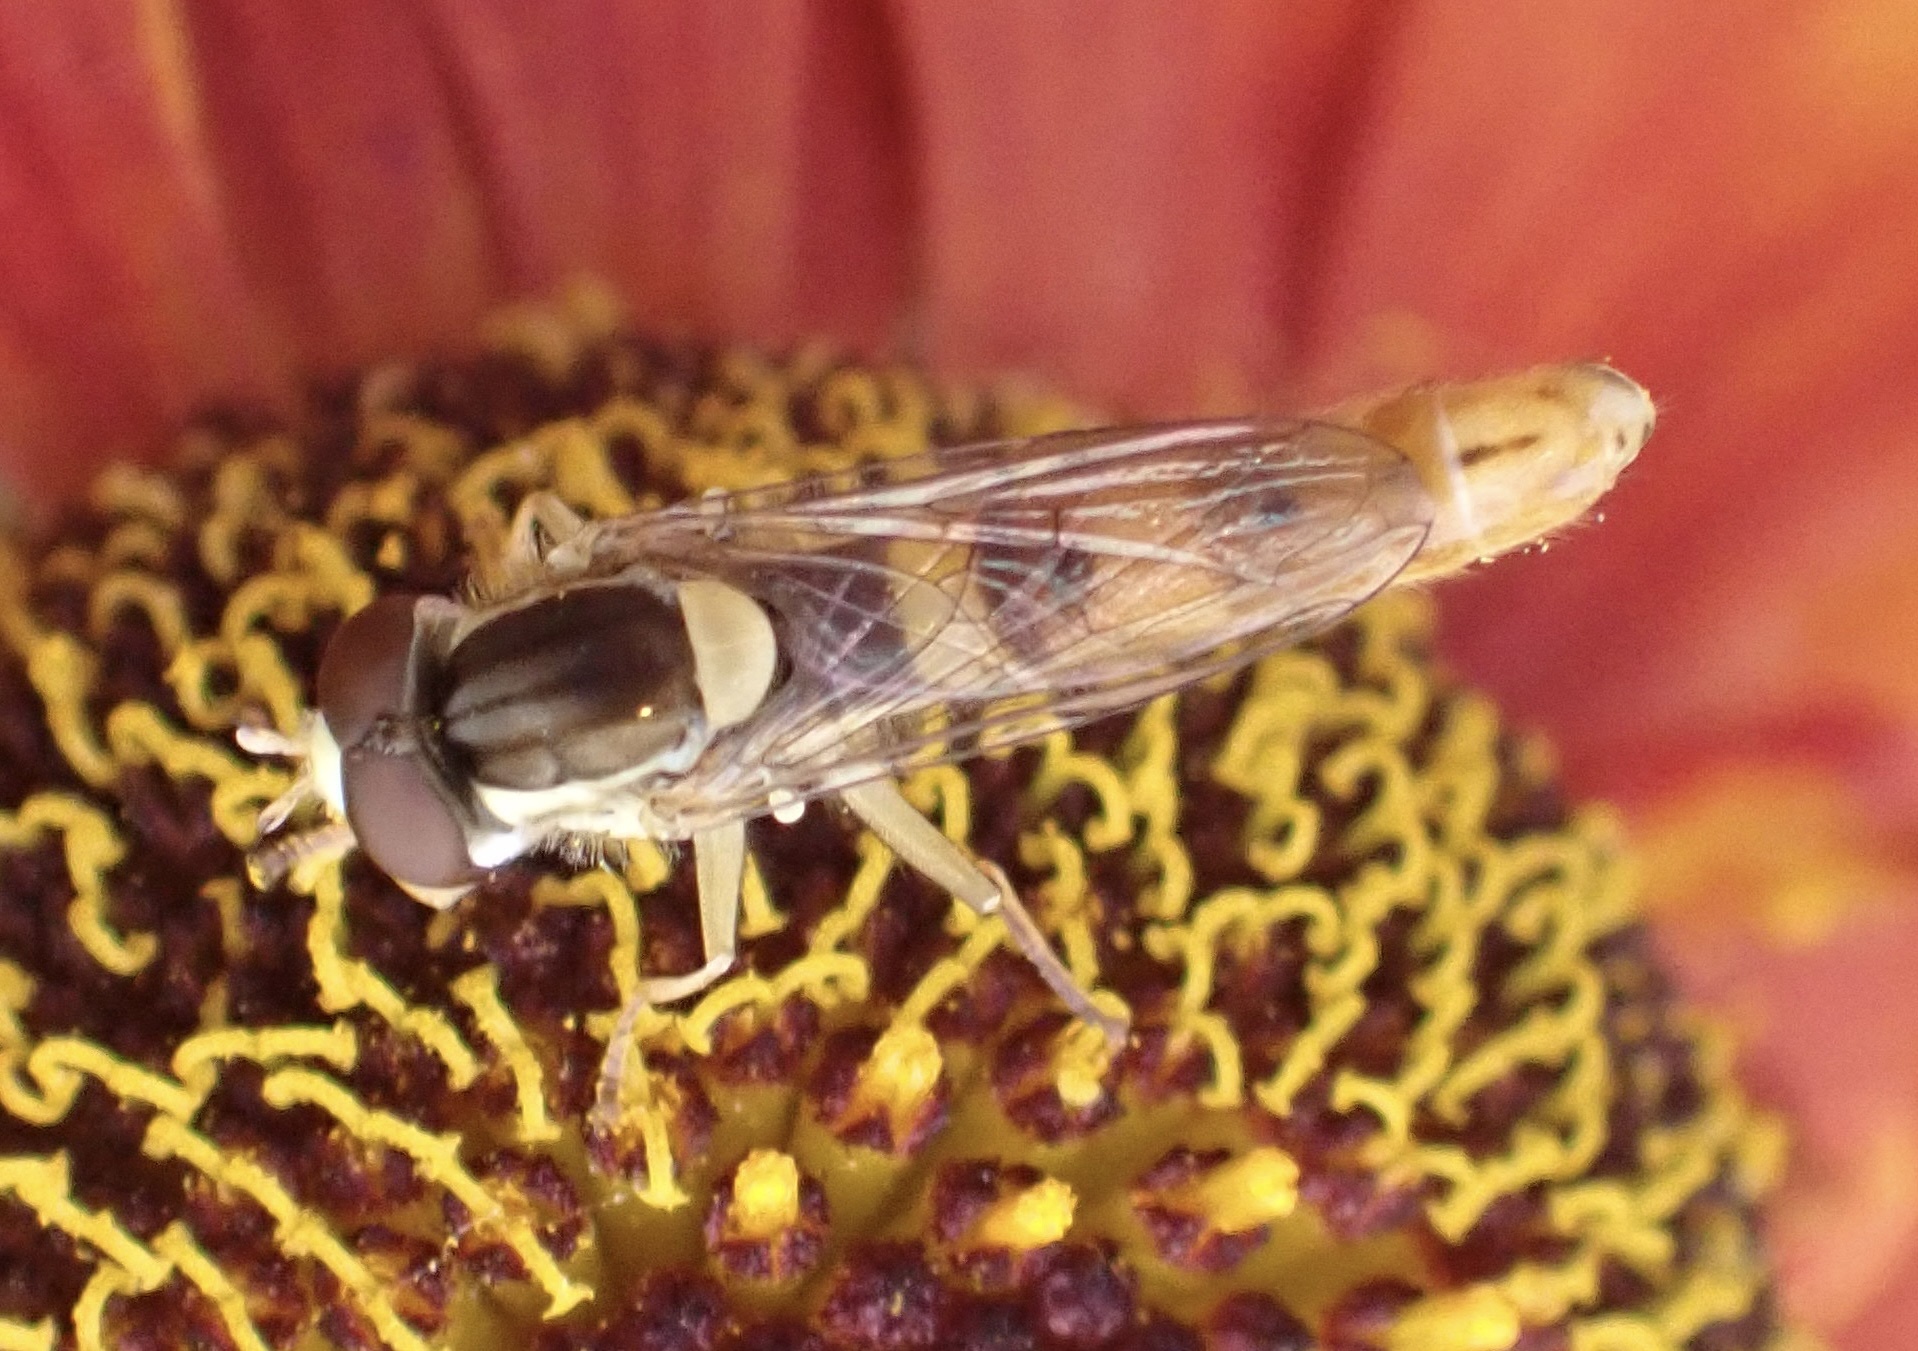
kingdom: Animalia
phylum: Arthropoda
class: Insecta
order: Diptera
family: Syrphidae
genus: Sphaerophoria
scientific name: Sphaerophoria scripta
